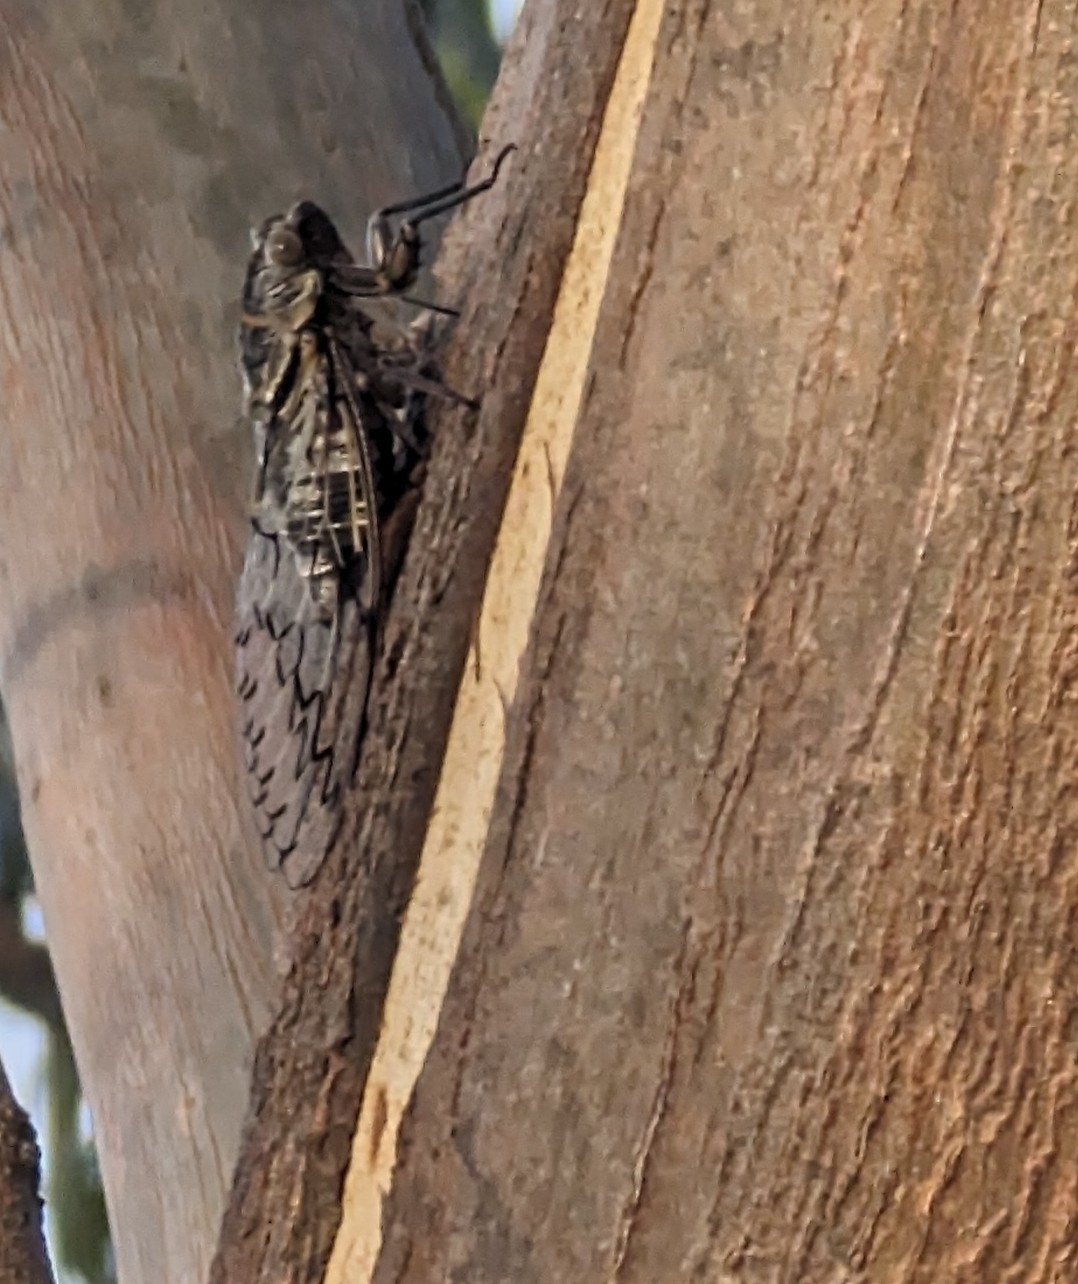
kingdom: Animalia
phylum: Arthropoda
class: Insecta
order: Hemiptera
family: Cicadidae
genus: Henicopsaltria
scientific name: Henicopsaltria eydouxii
